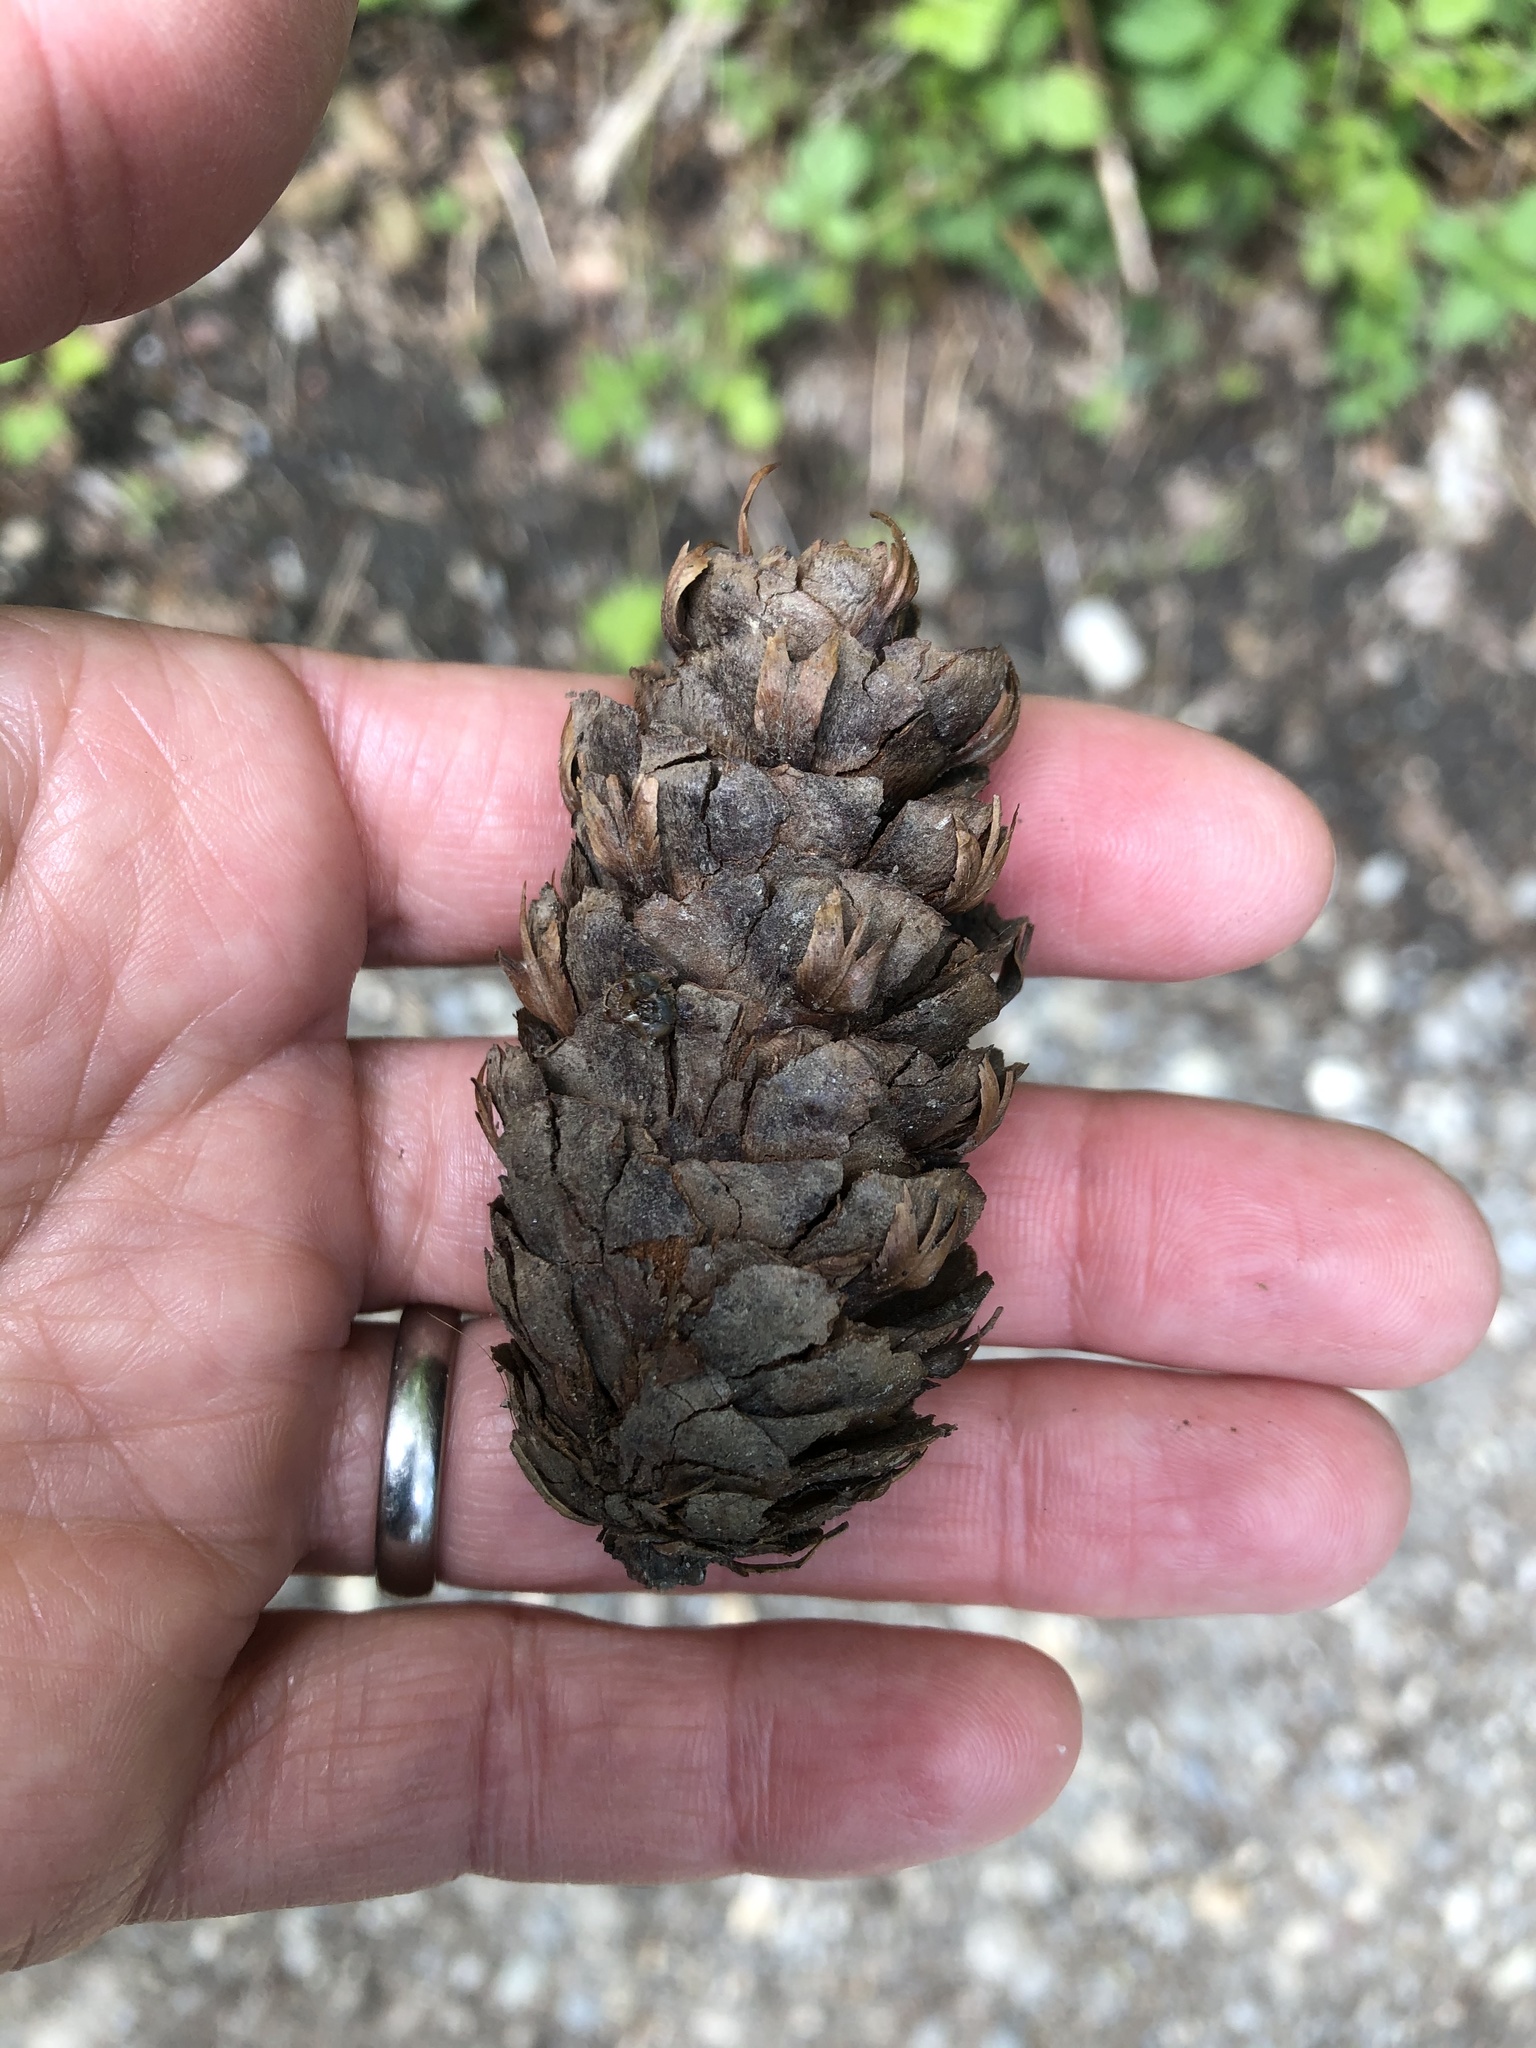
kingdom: Plantae
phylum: Tracheophyta
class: Pinopsida
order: Pinales
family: Pinaceae
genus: Pseudotsuga
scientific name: Pseudotsuga menziesii
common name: Douglas fir
